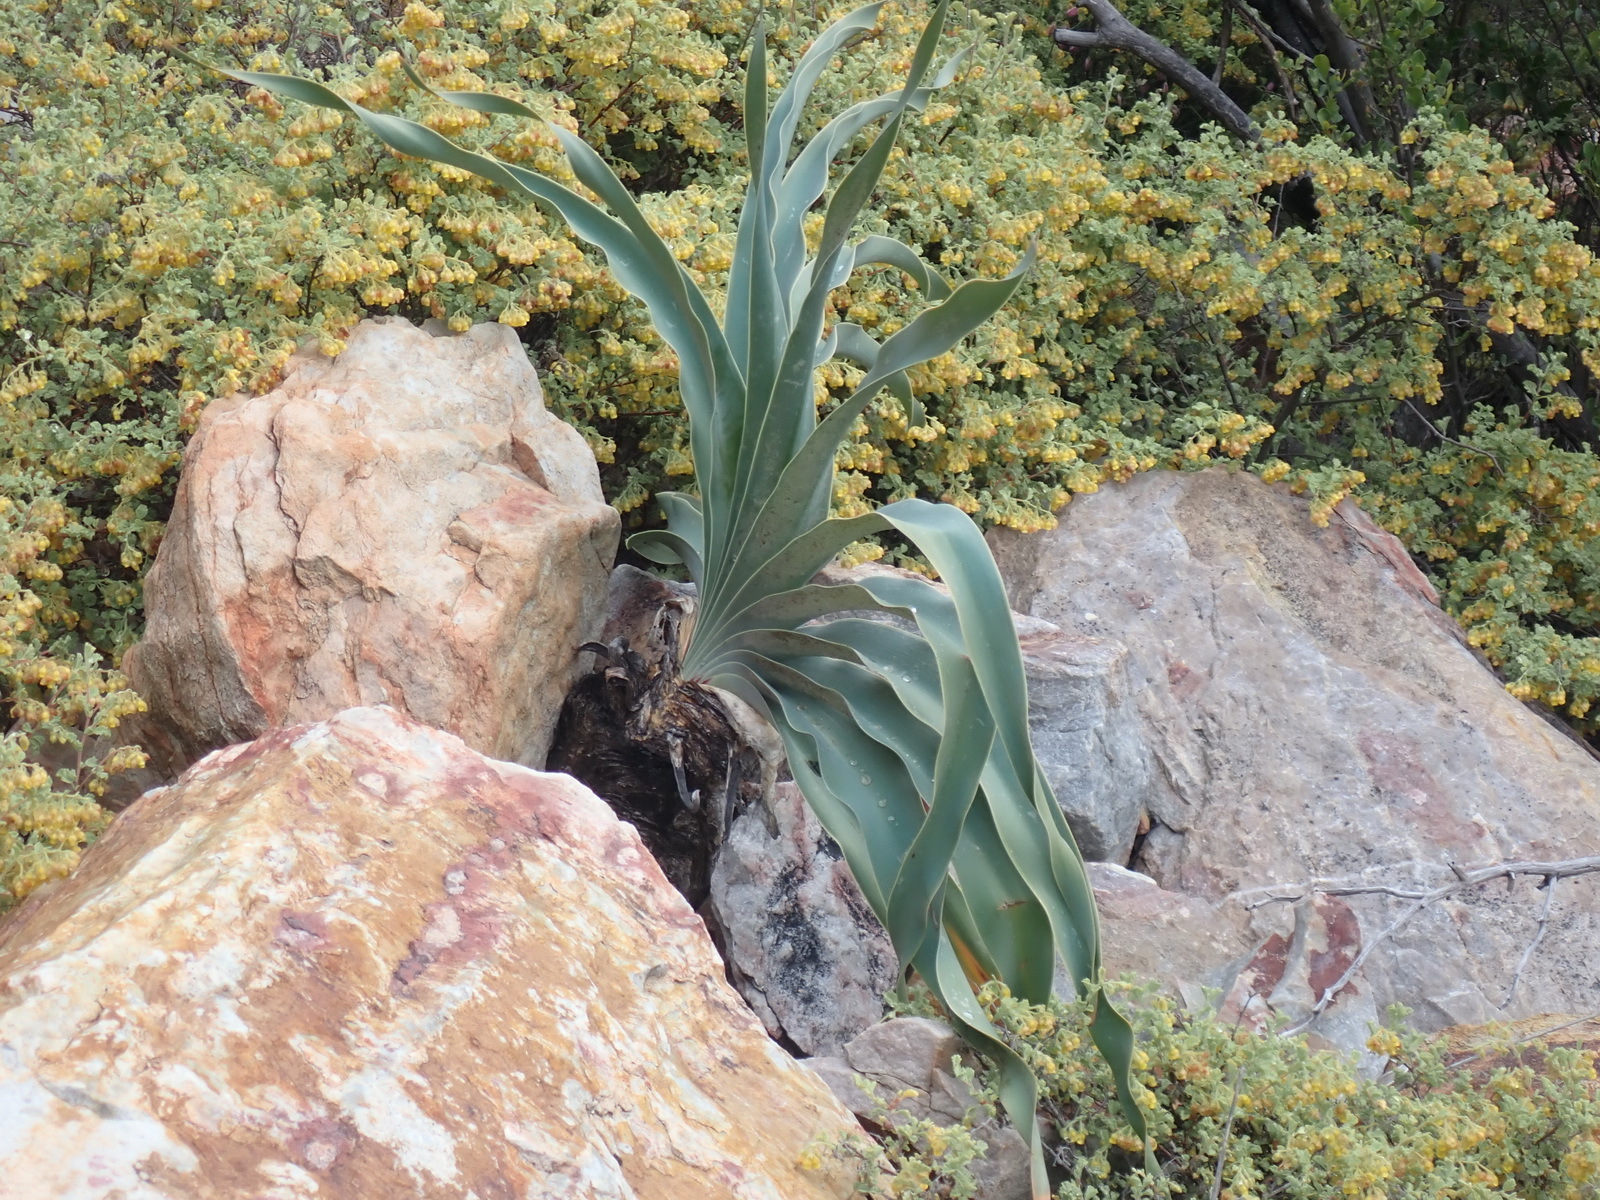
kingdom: Plantae
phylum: Tracheophyta
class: Liliopsida
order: Asparagales
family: Amaryllidaceae
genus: Boophone
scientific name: Boophone disticha
